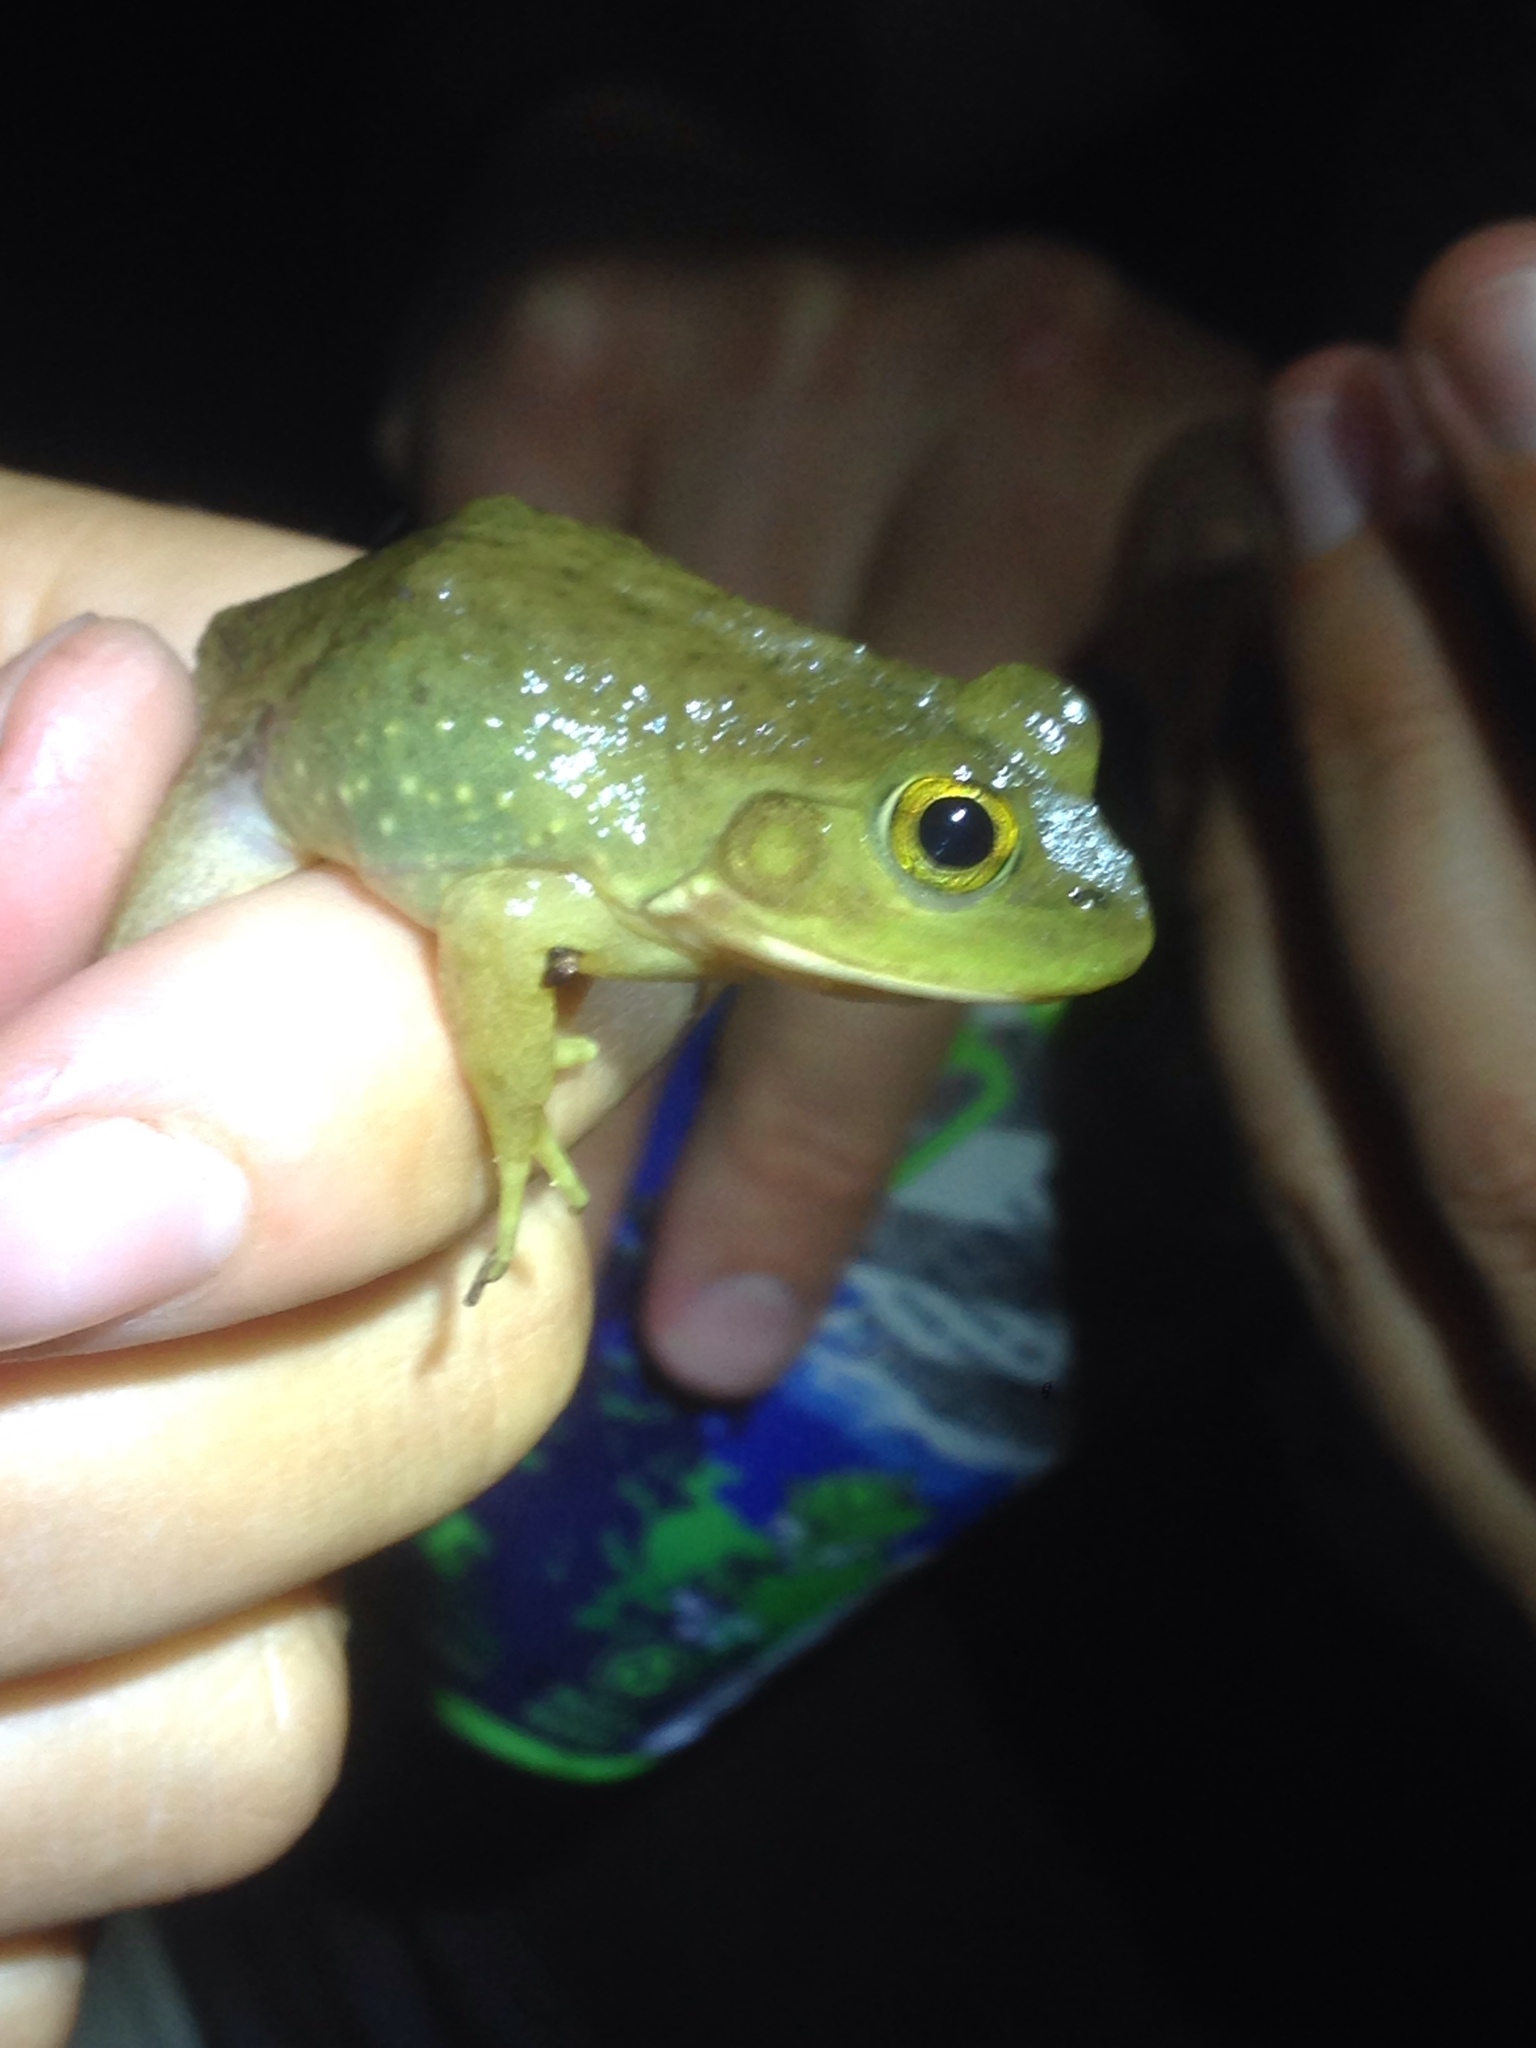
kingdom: Animalia
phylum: Chordata
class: Amphibia
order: Anura
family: Ranidae
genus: Lithobates
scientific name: Lithobates catesbeianus
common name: American bullfrog
